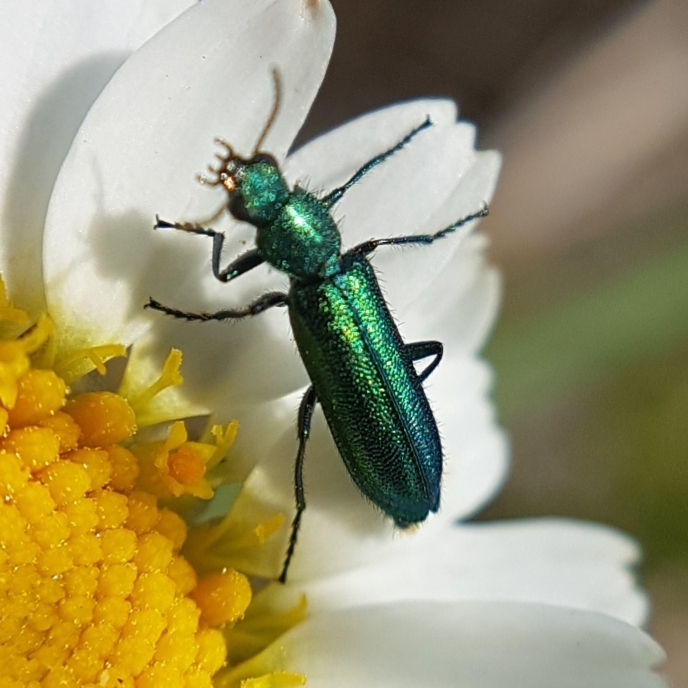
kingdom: Animalia
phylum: Arthropoda
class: Insecta
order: Coleoptera
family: Dasytidae
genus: Psilothrix
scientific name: Psilothrix viridicoerulea
